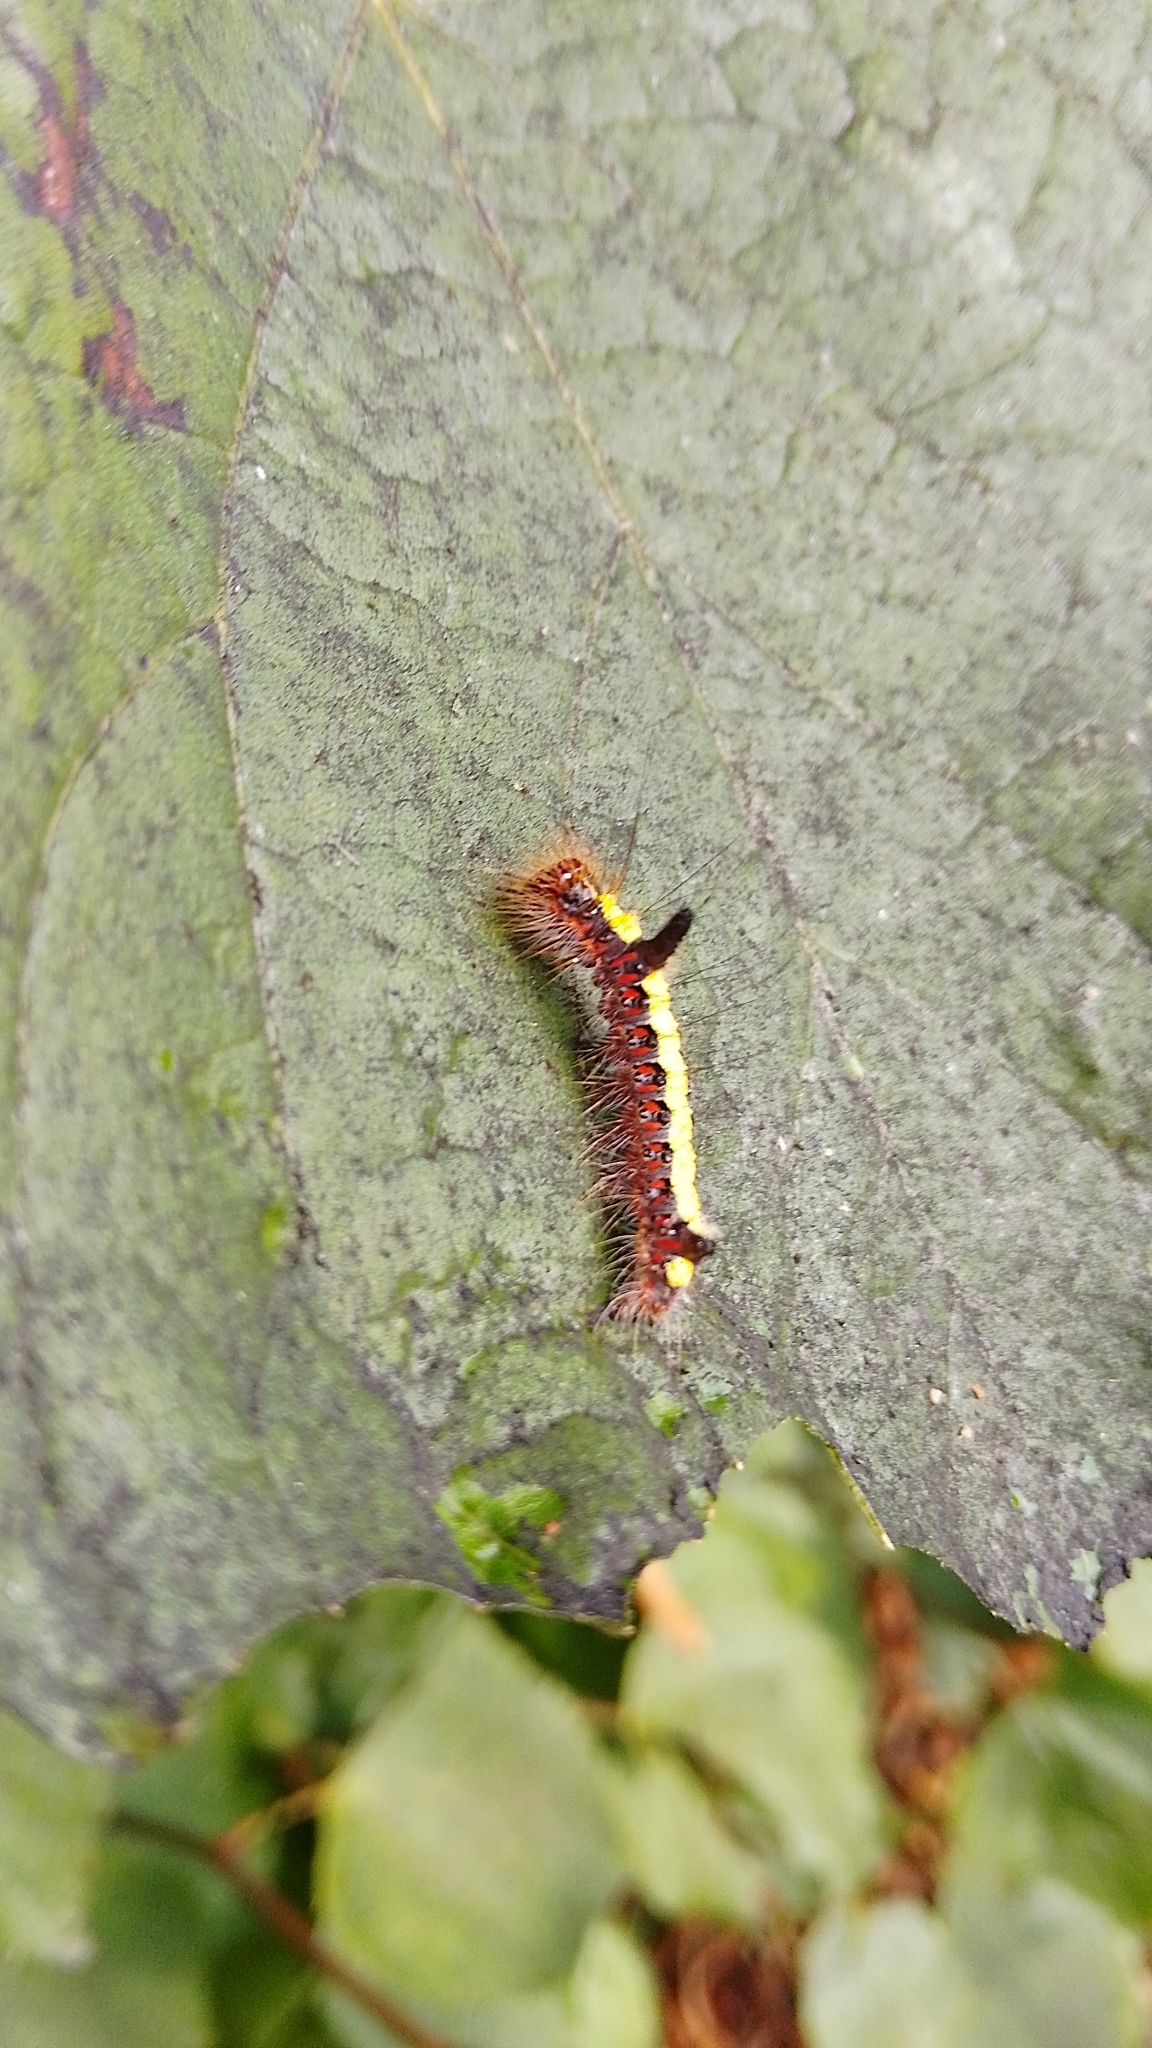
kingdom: Animalia
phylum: Arthropoda
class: Insecta
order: Lepidoptera
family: Noctuidae
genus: Acronicta
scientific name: Acronicta psi
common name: Grey dagger
